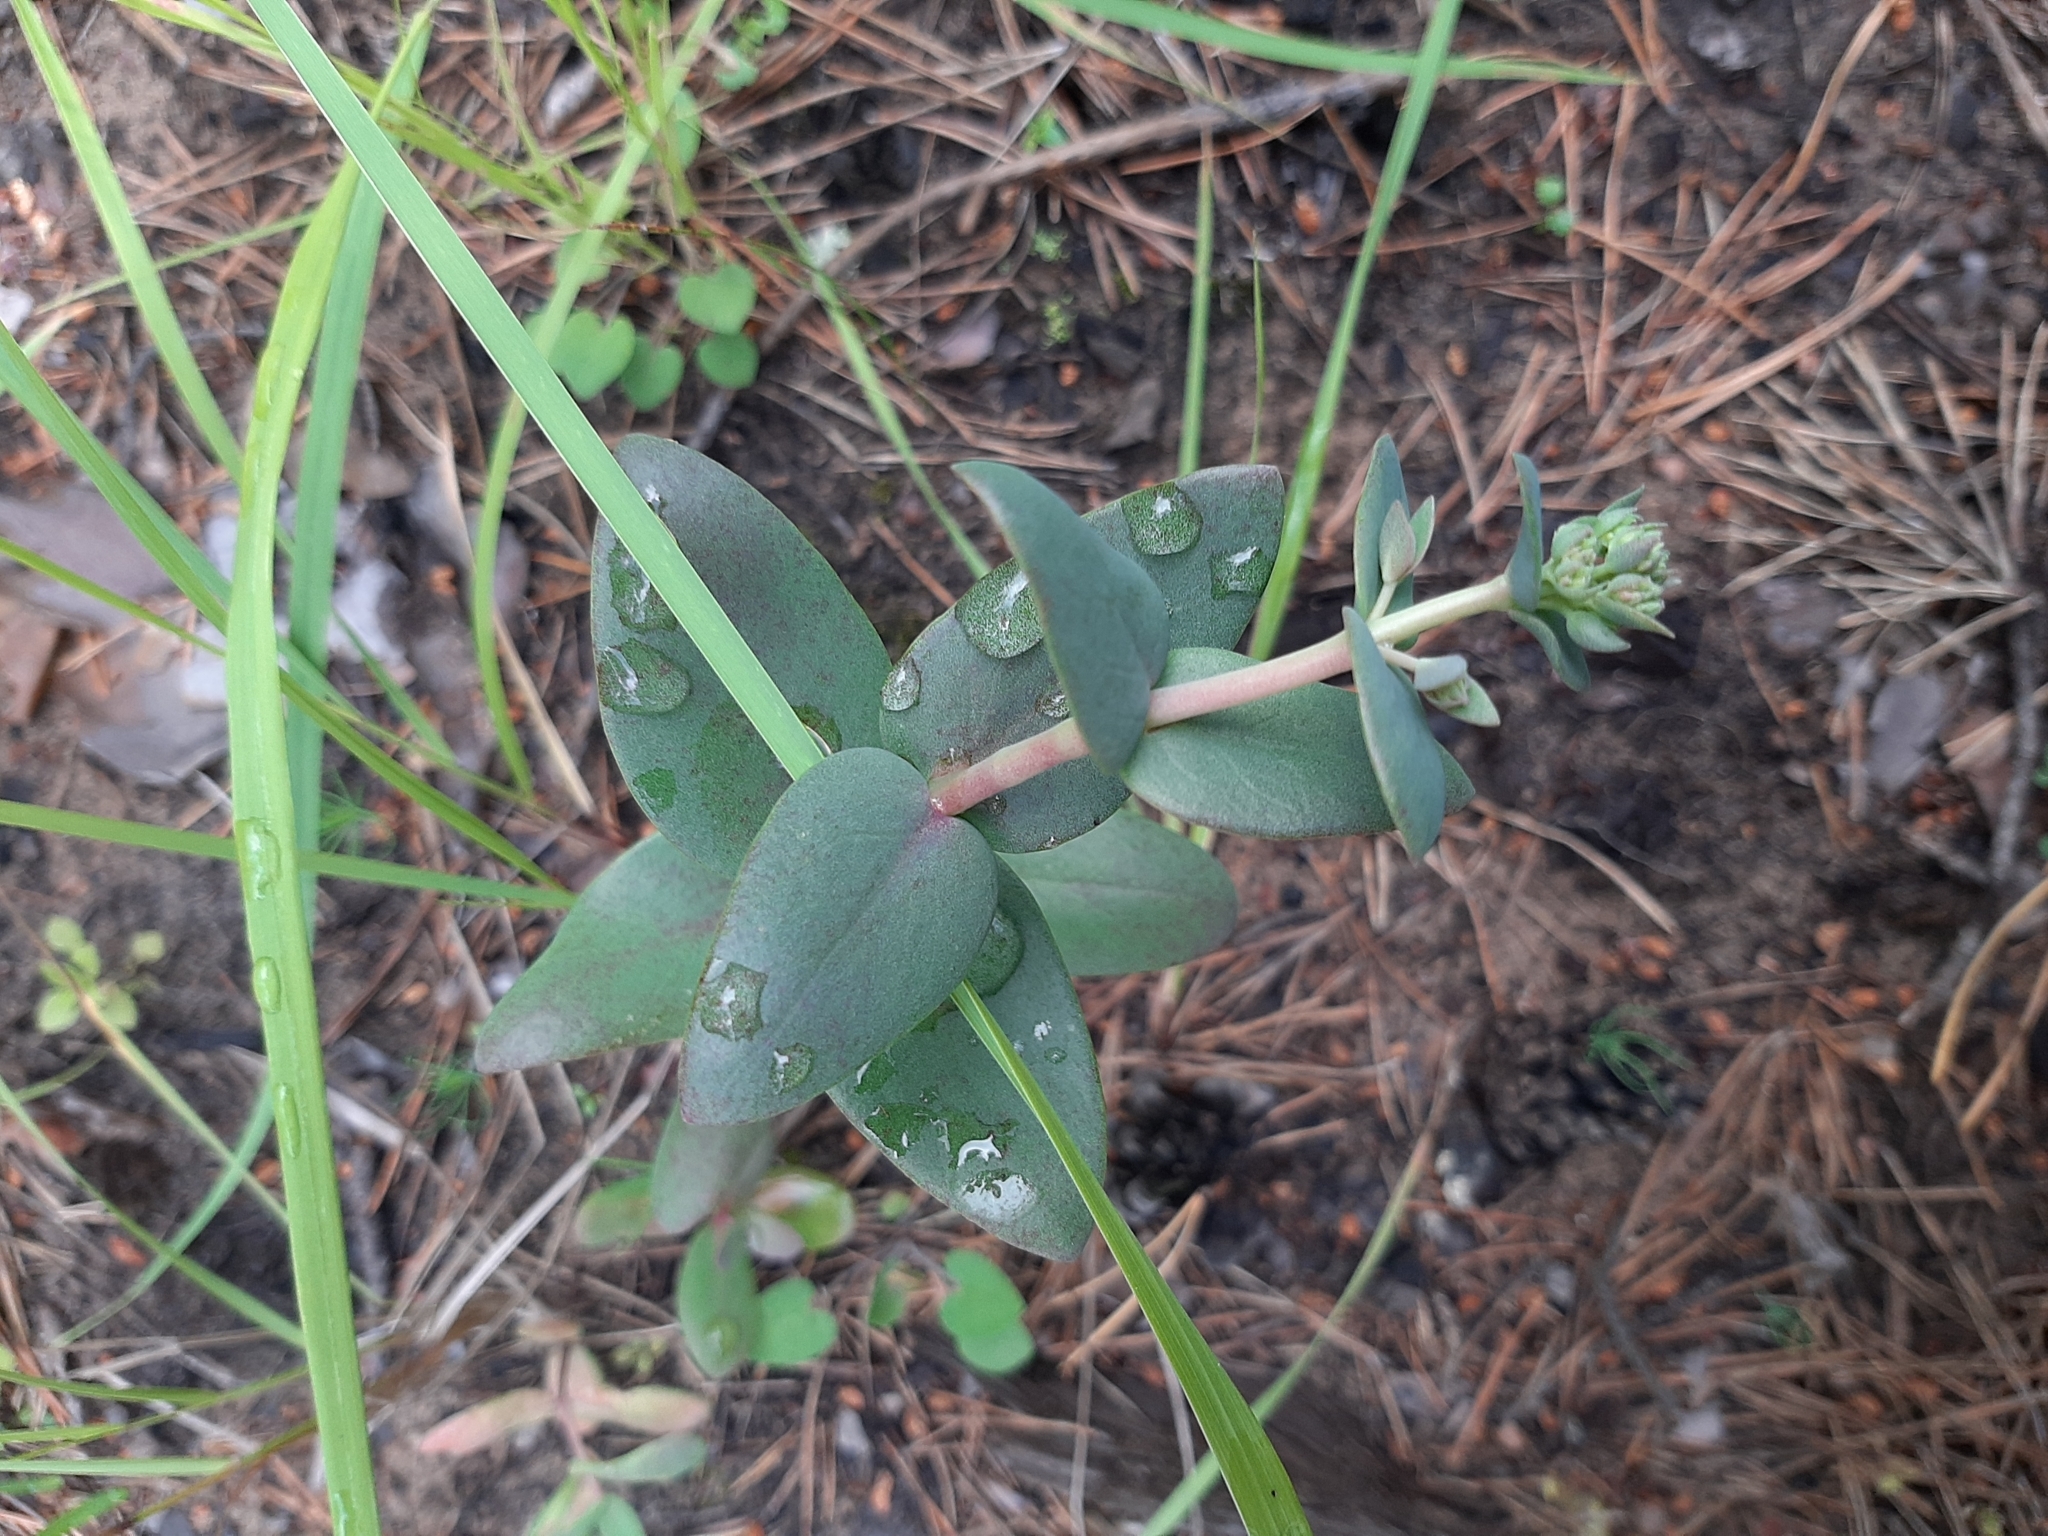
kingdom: Plantae
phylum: Tracheophyta
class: Magnoliopsida
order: Saxifragales
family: Crassulaceae
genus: Hylotelephium
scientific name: Hylotelephium maximum
